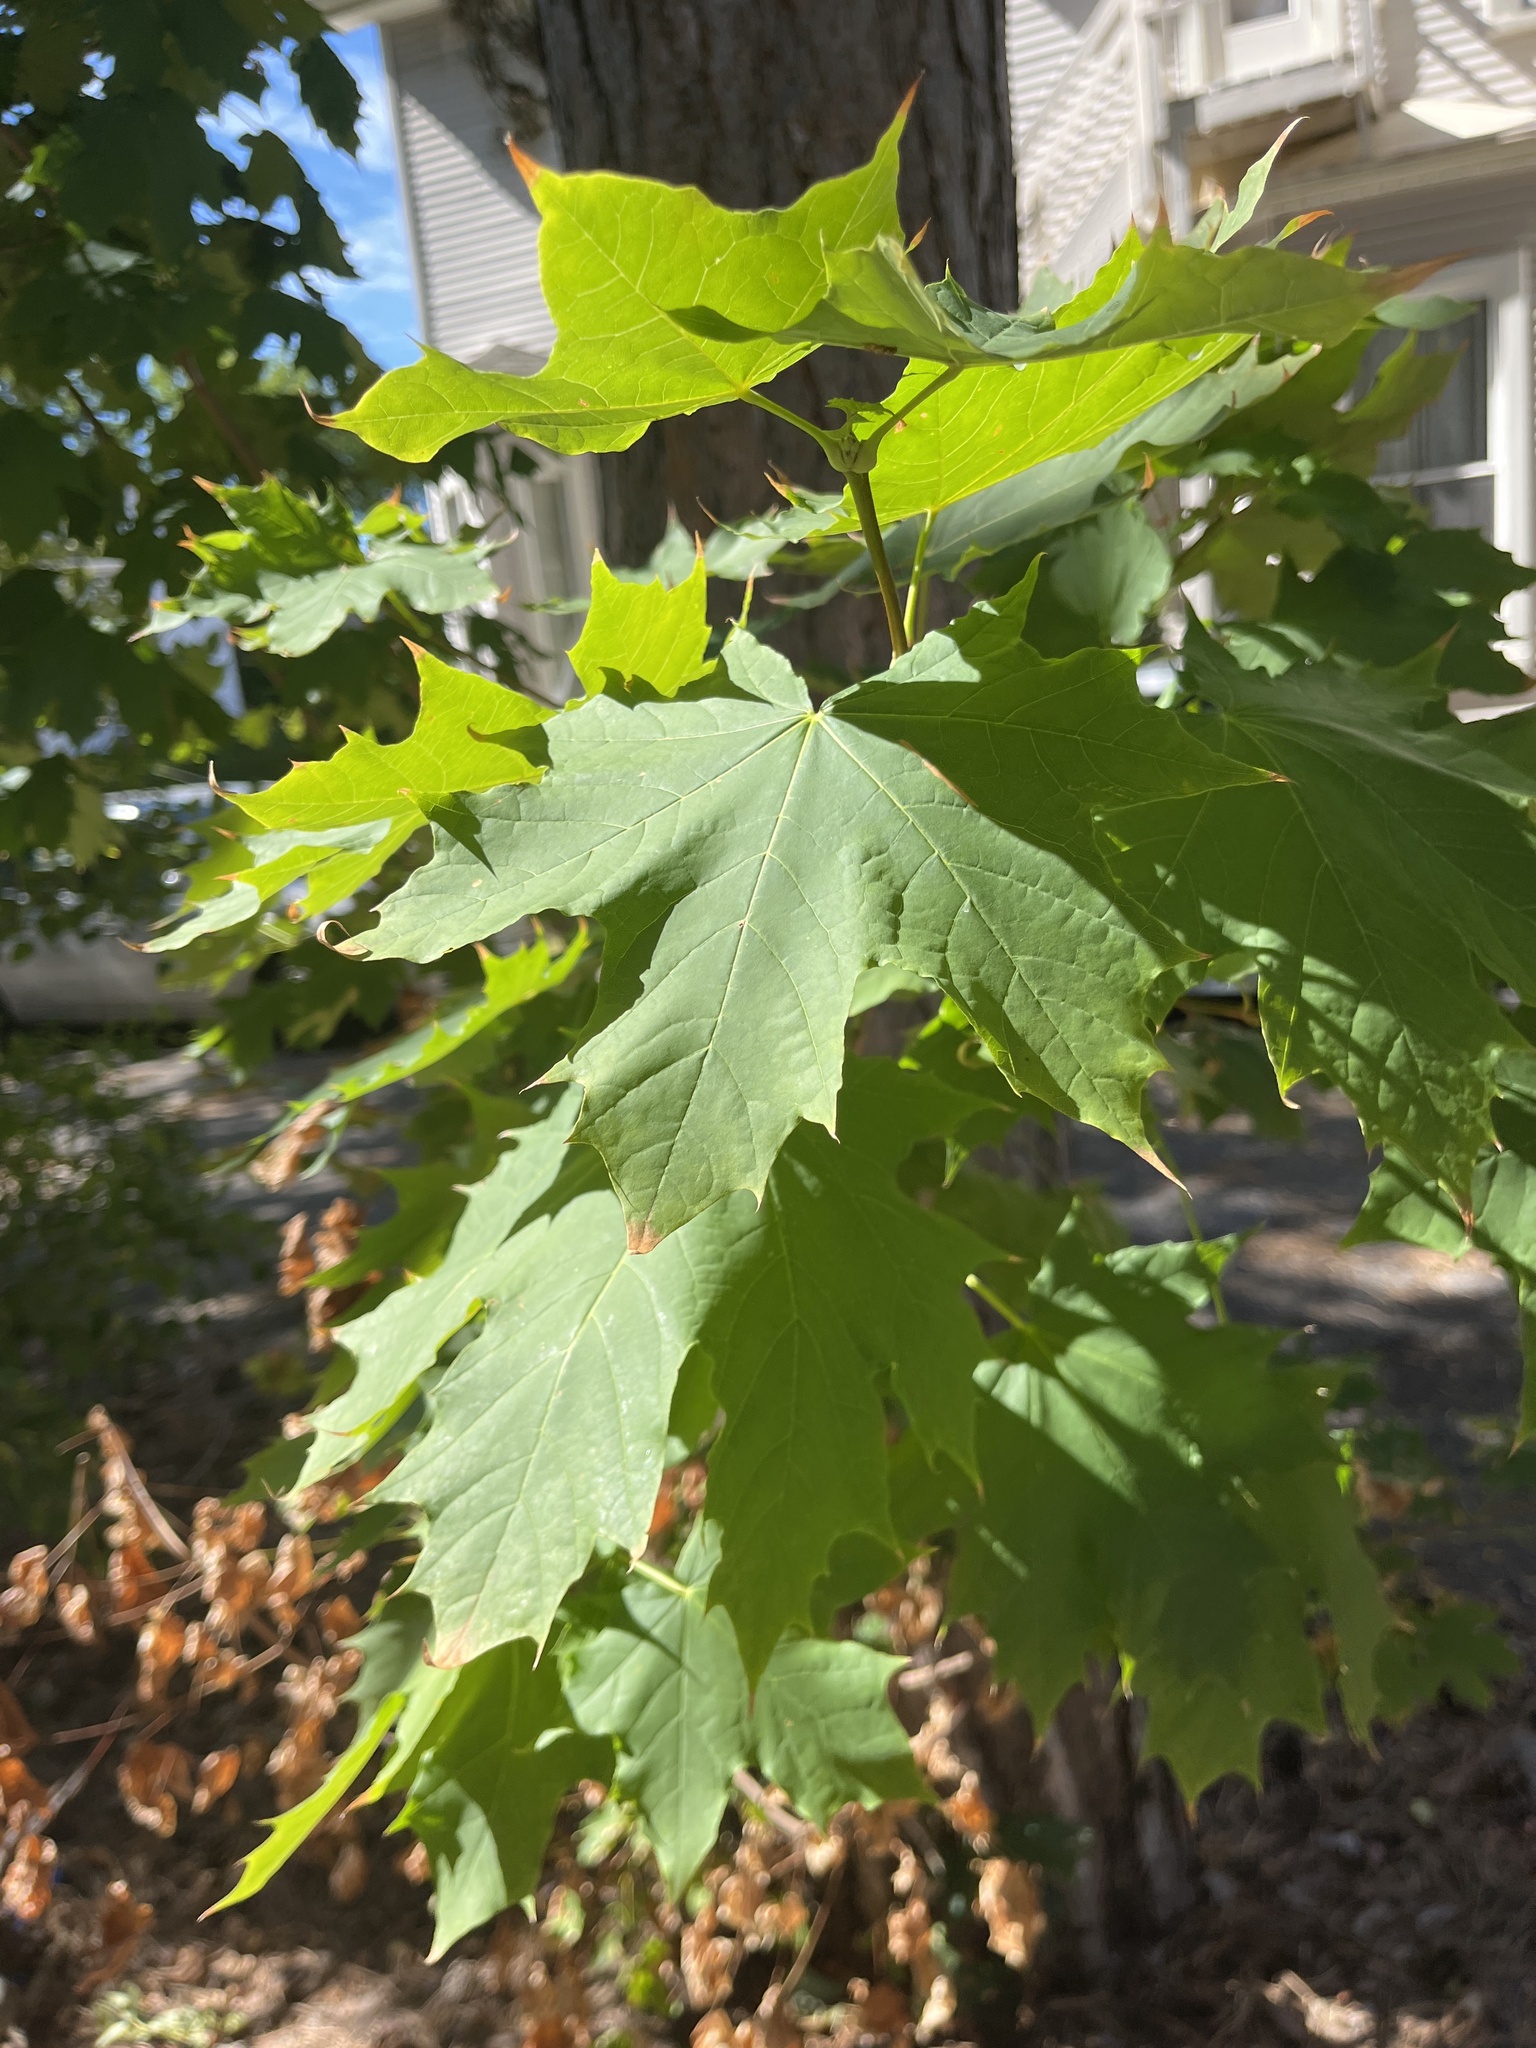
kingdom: Plantae
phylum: Tracheophyta
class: Magnoliopsida
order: Sapindales
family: Sapindaceae
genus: Acer
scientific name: Acer platanoides
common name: Norway maple
